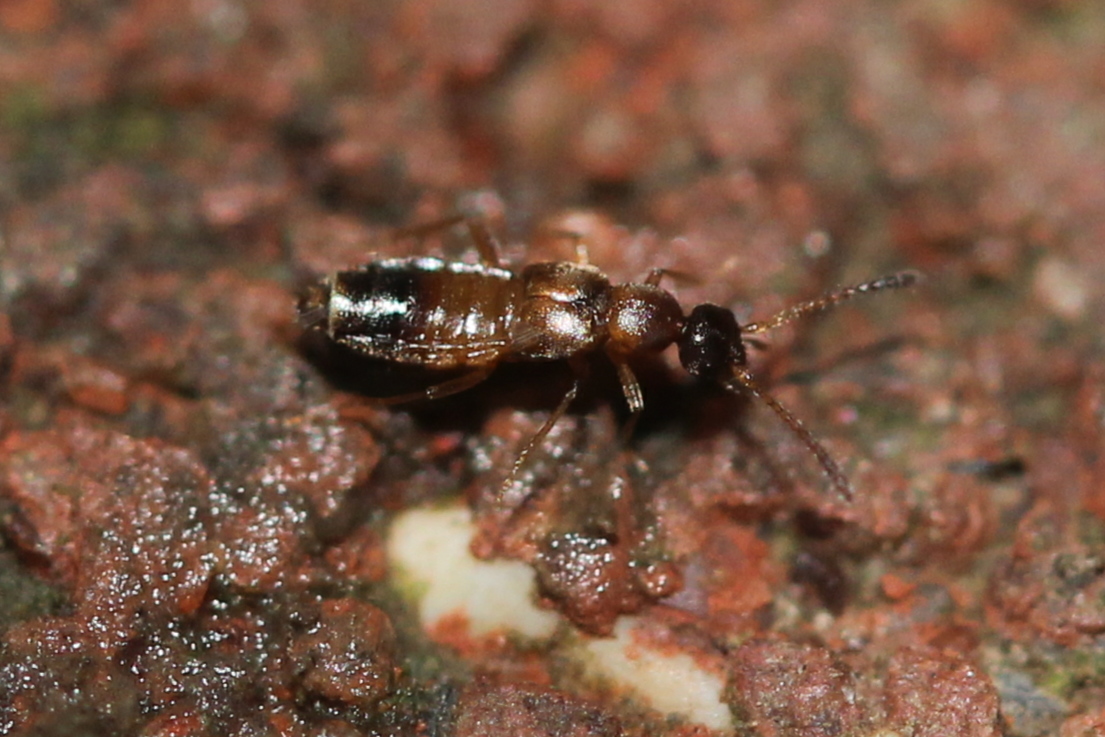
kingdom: Animalia
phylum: Arthropoda
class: Insecta
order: Coleoptera
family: Staphylinidae
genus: Meronera
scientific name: Meronera venustula
